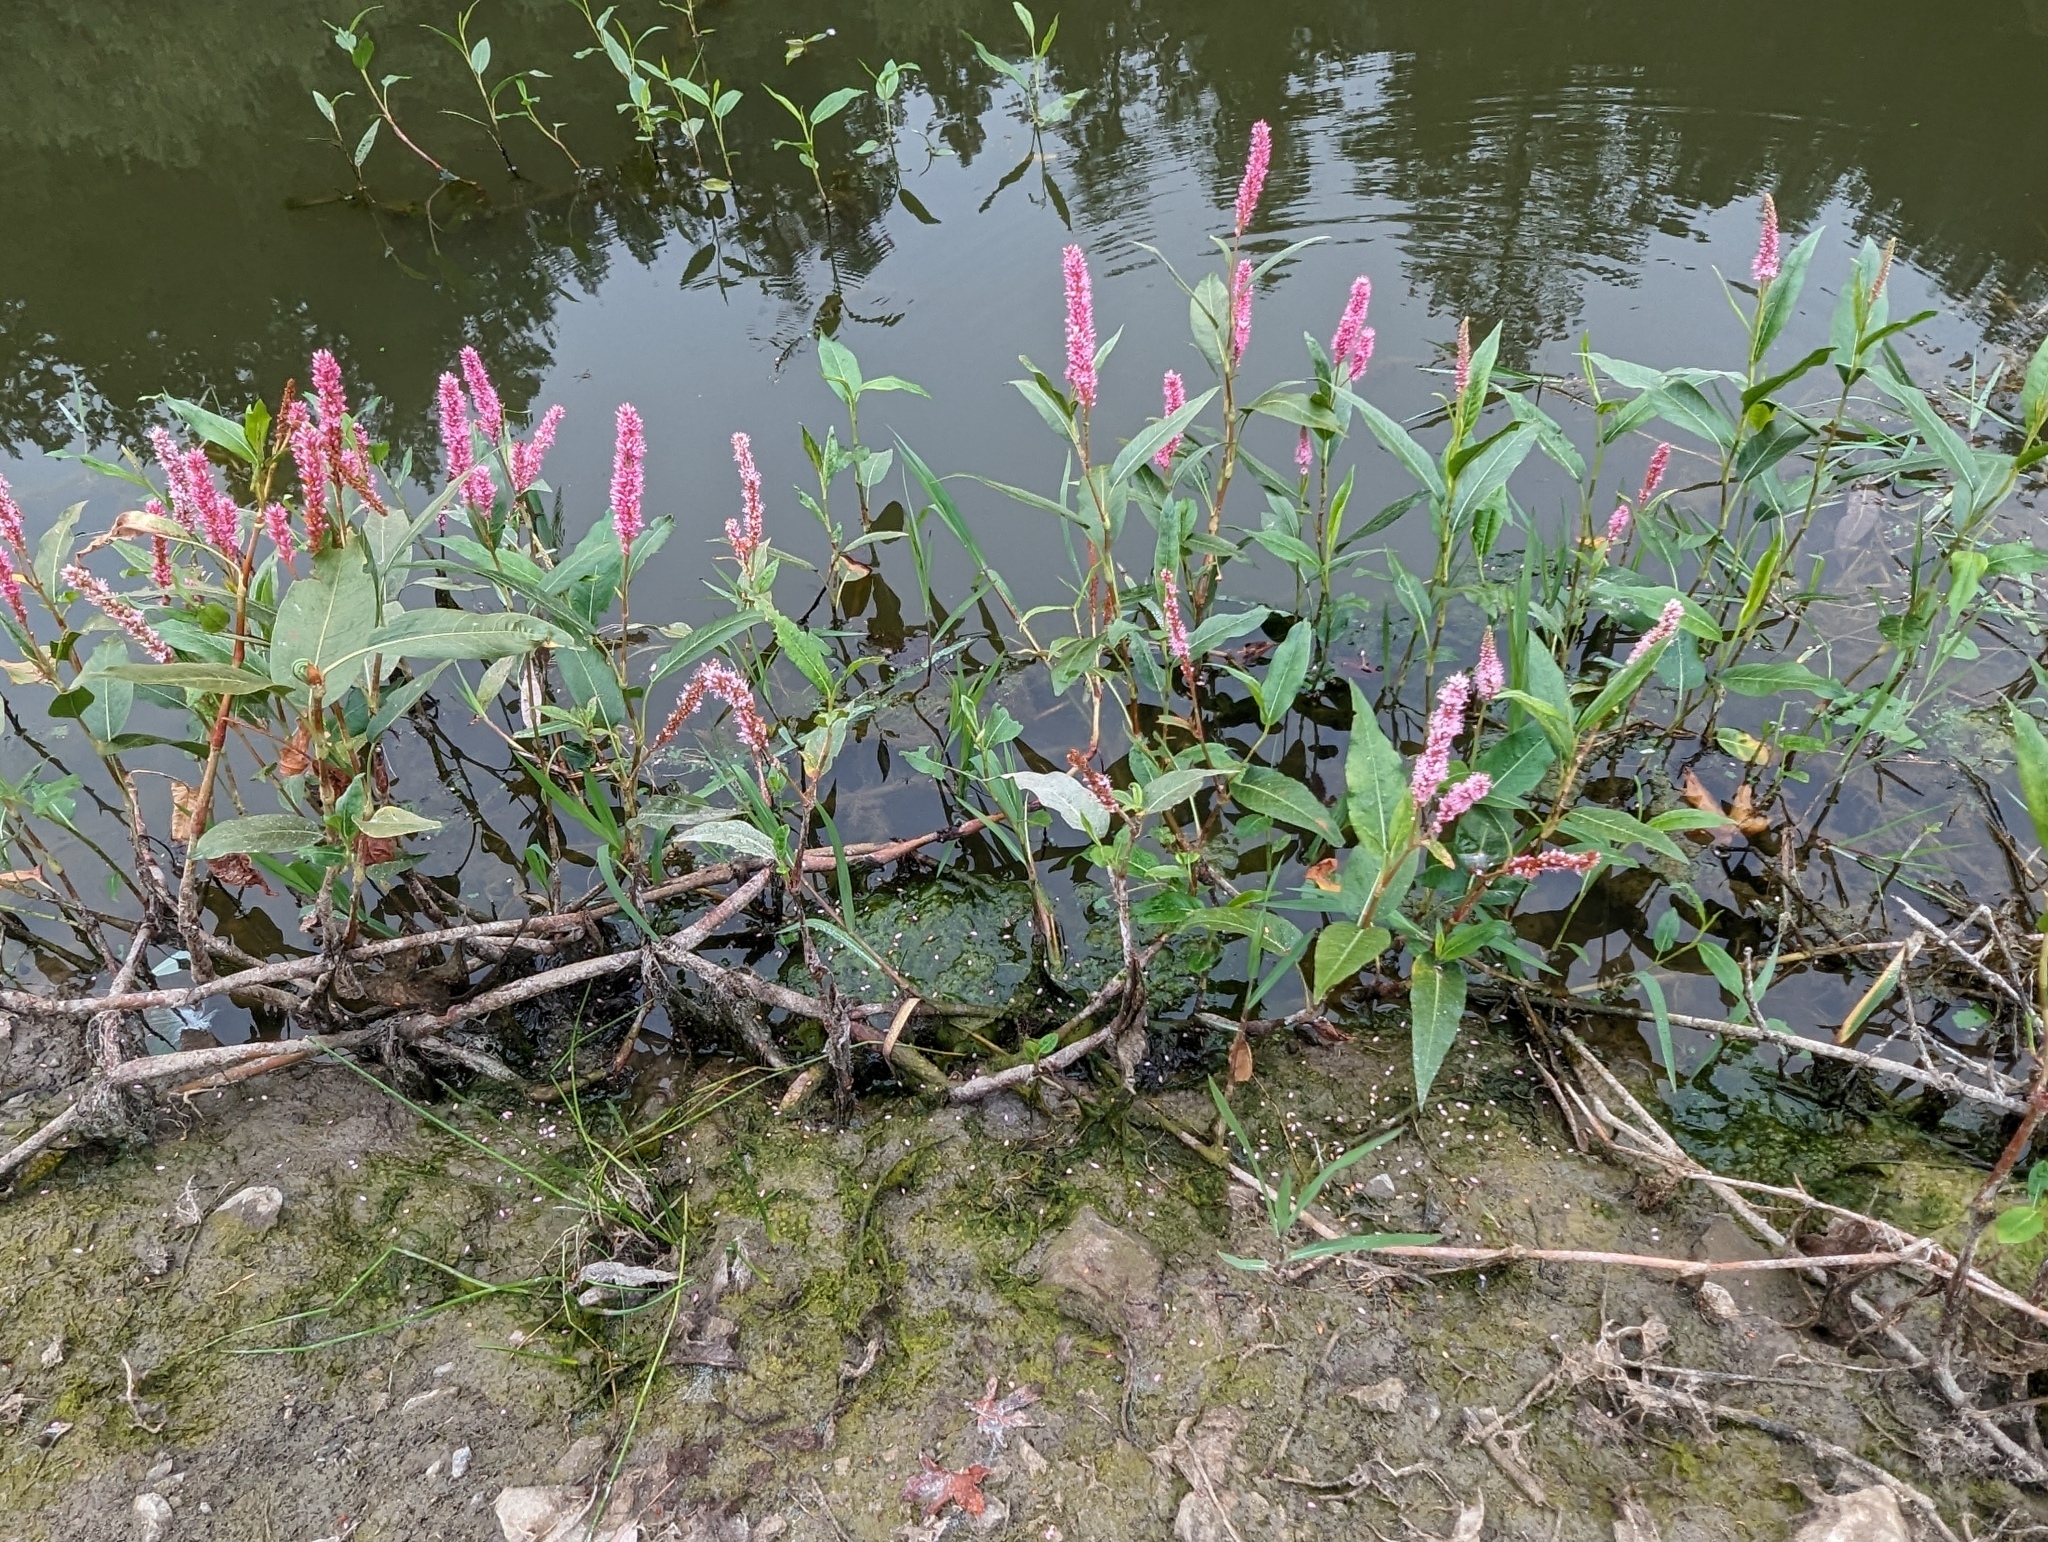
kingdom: Plantae
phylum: Tracheophyta
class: Magnoliopsida
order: Caryophyllales
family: Polygonaceae
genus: Persicaria
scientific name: Persicaria amphibia
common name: Amphibious bistort
